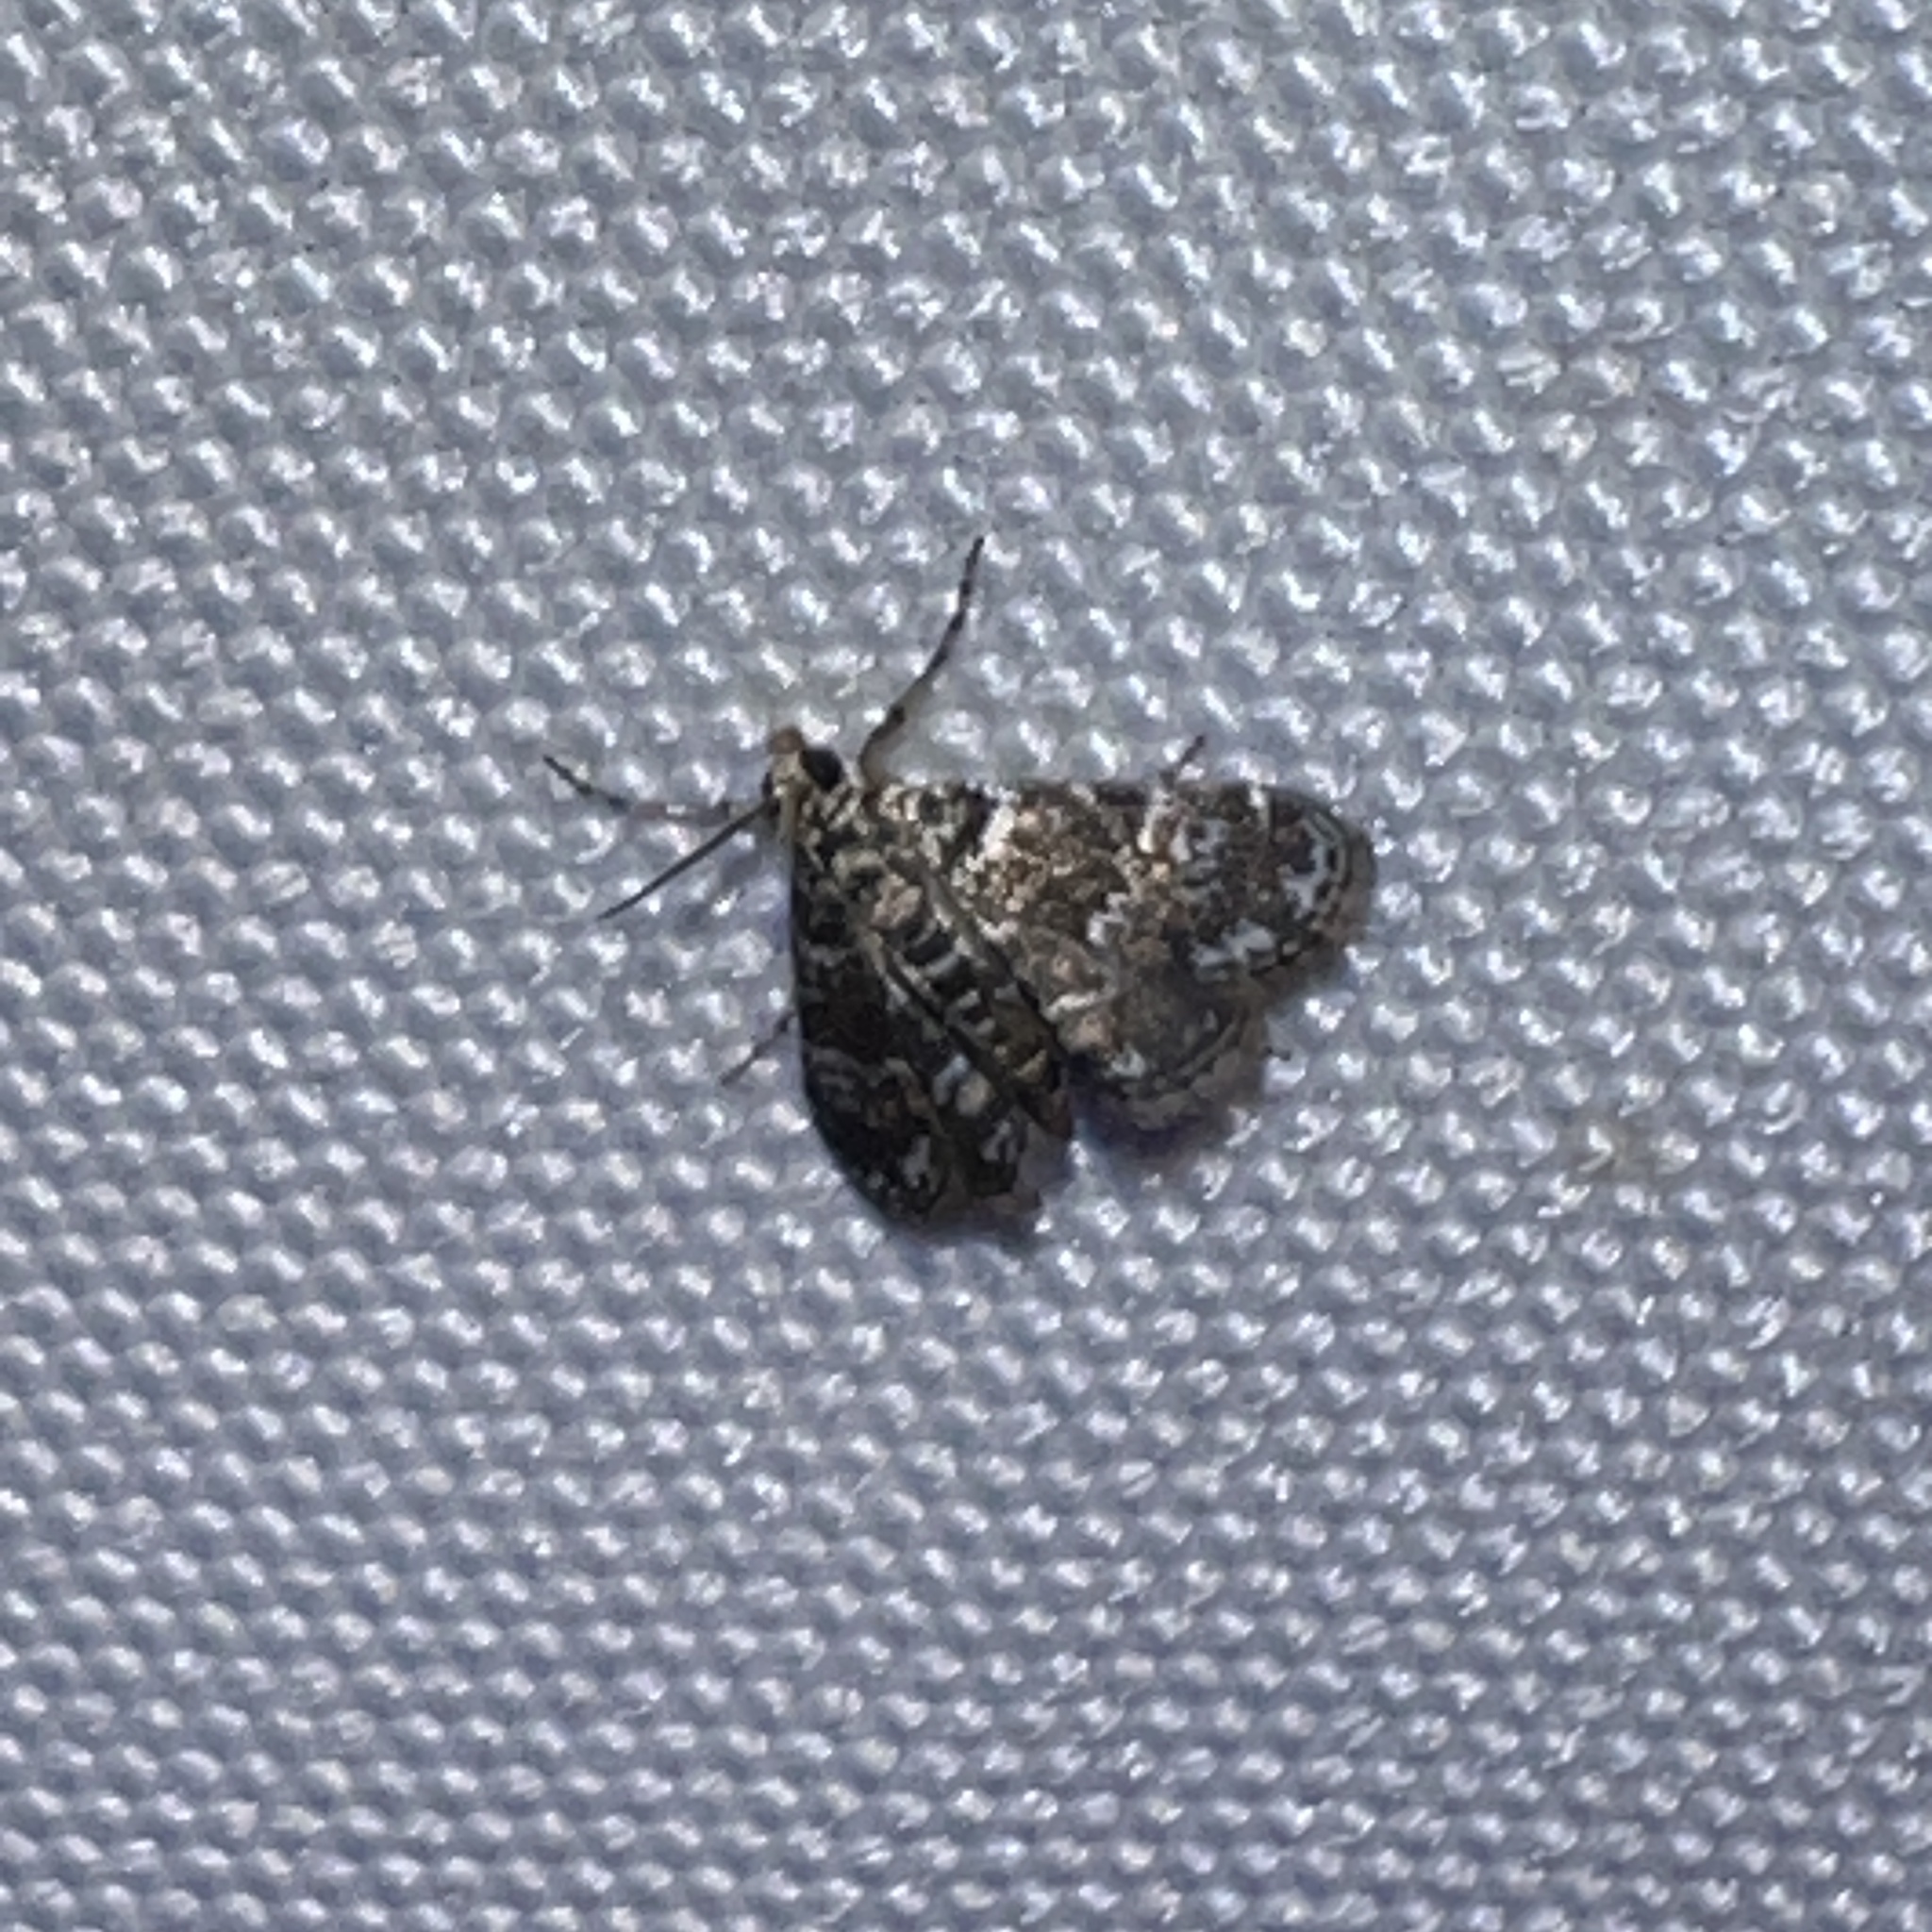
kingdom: Animalia
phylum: Arthropoda
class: Insecta
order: Lepidoptera
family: Crambidae
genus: Elophila
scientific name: Elophila obliteralis
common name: Waterlily leafcutter moth
